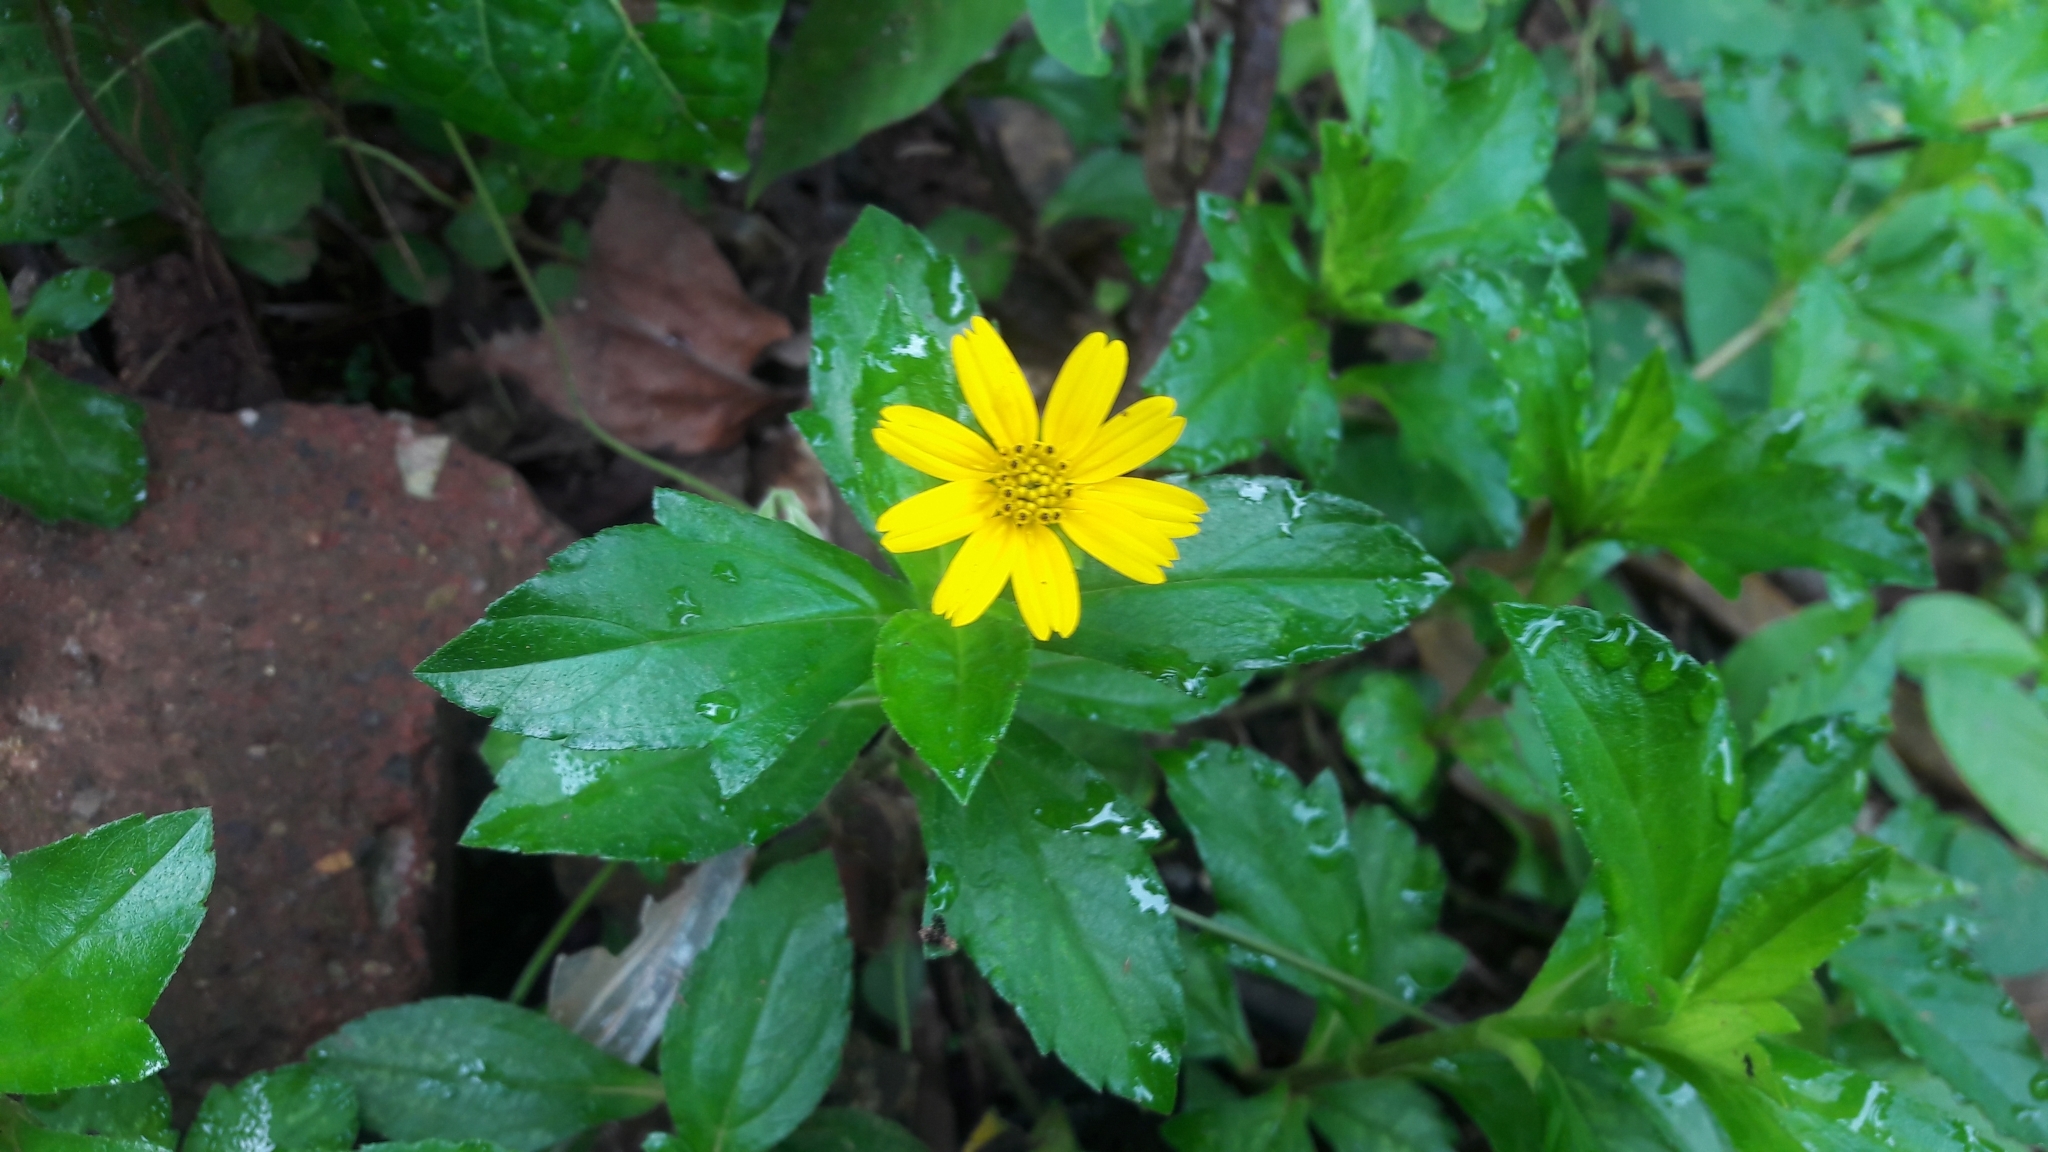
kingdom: Plantae
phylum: Tracheophyta
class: Magnoliopsida
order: Asterales
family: Asteraceae
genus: Sphagneticola
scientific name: Sphagneticola trilobata
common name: Bay biscayne creeping-oxeye
